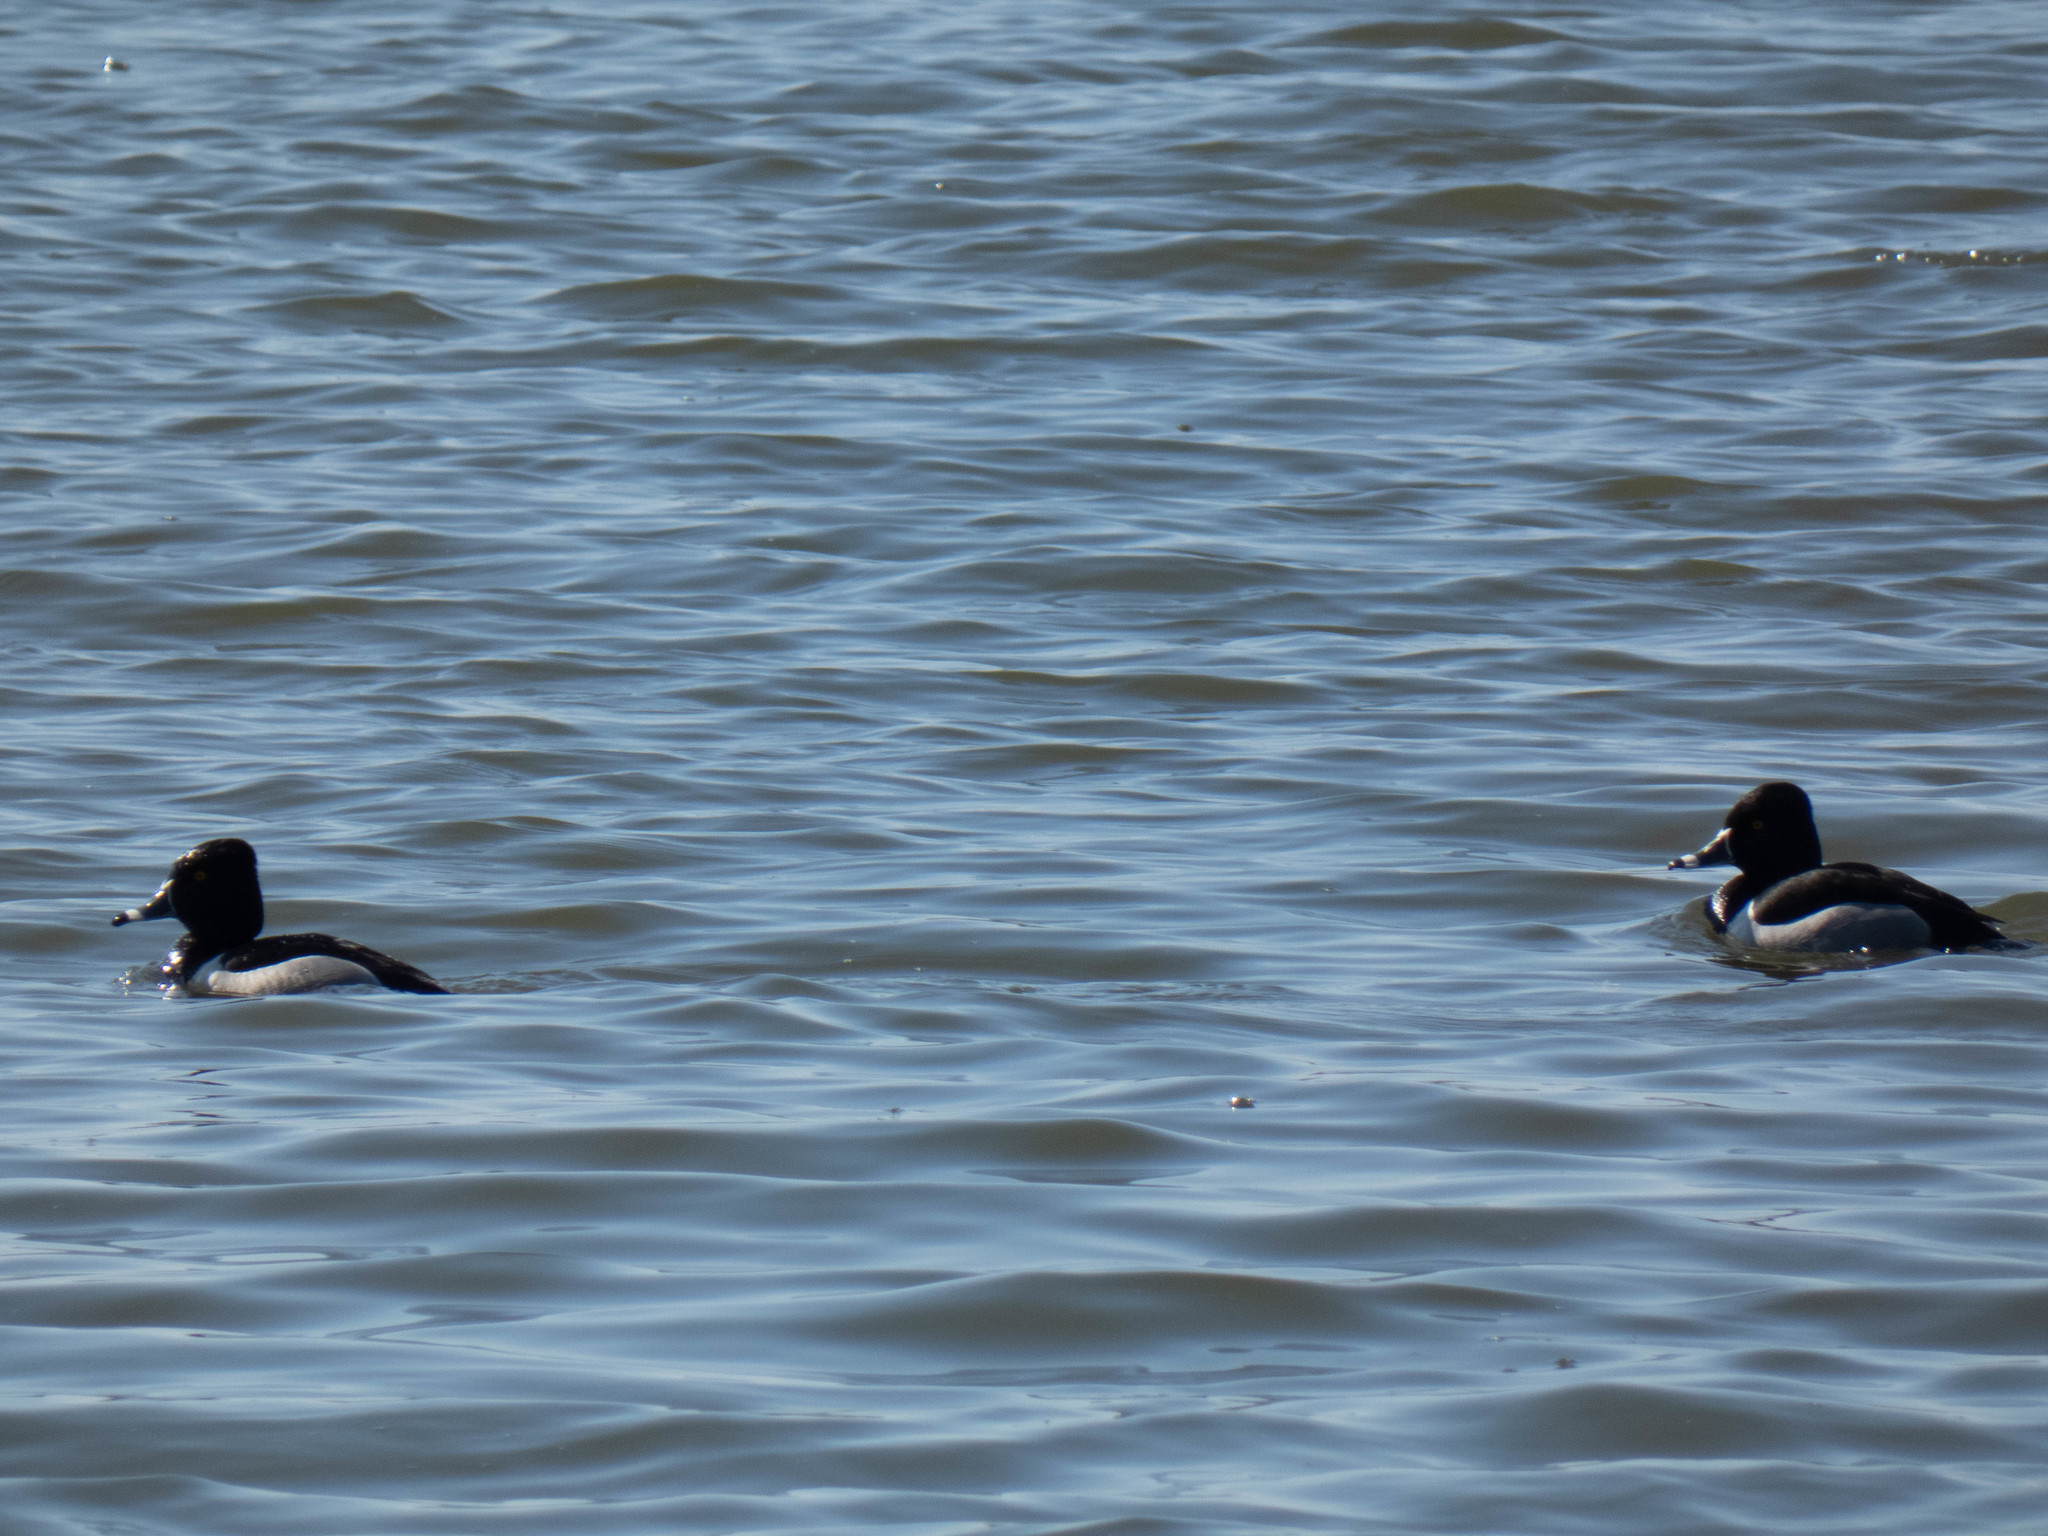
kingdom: Animalia
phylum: Chordata
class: Aves
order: Anseriformes
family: Anatidae
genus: Aythya
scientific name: Aythya collaris
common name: Ring-necked duck
